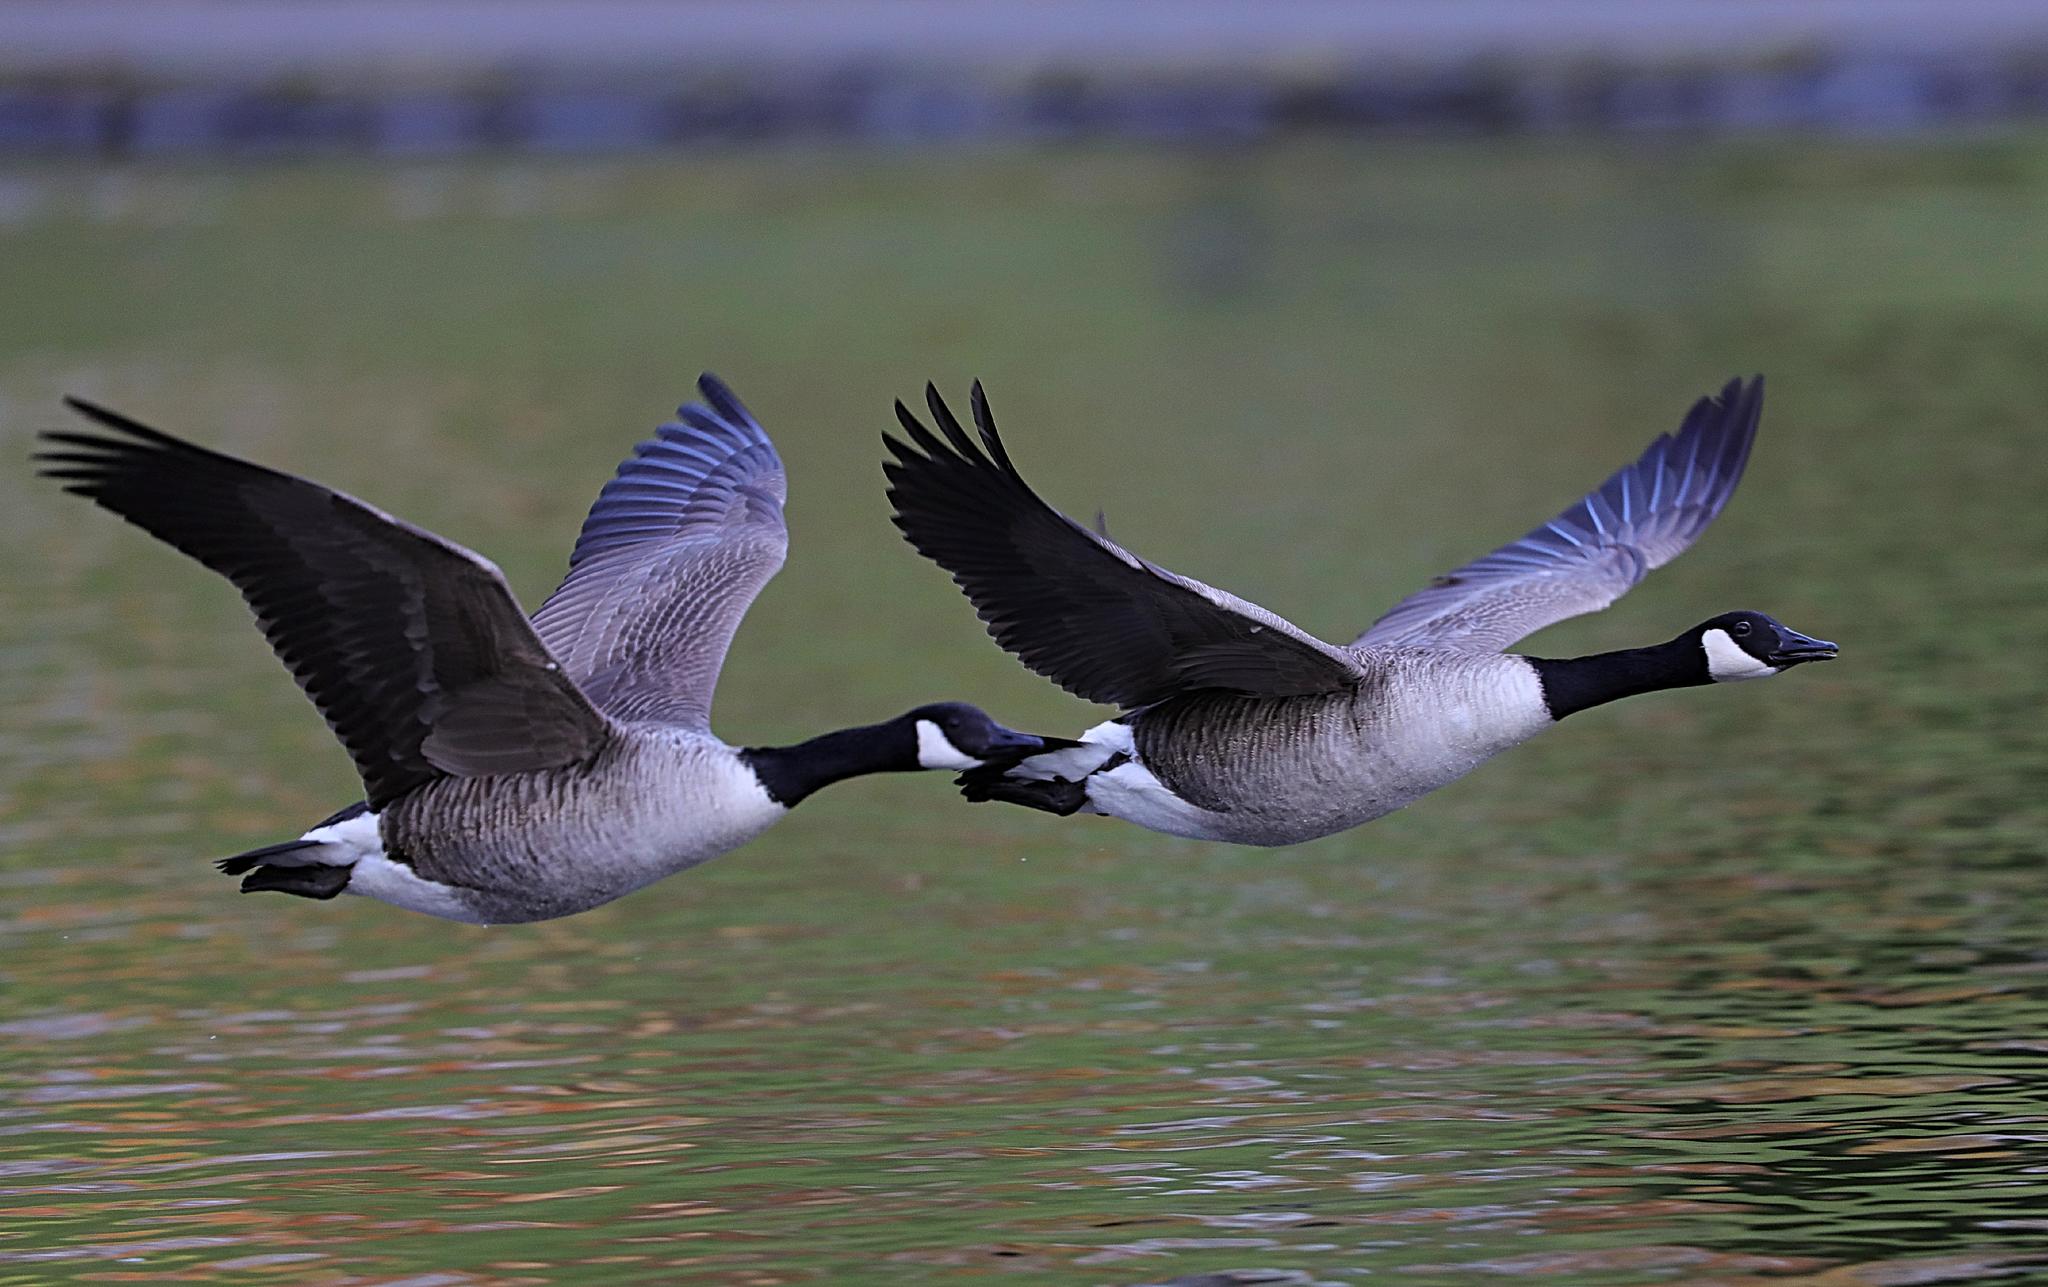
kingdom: Animalia
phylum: Chordata
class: Aves
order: Anseriformes
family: Anatidae
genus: Branta
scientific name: Branta canadensis
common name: Canada goose
